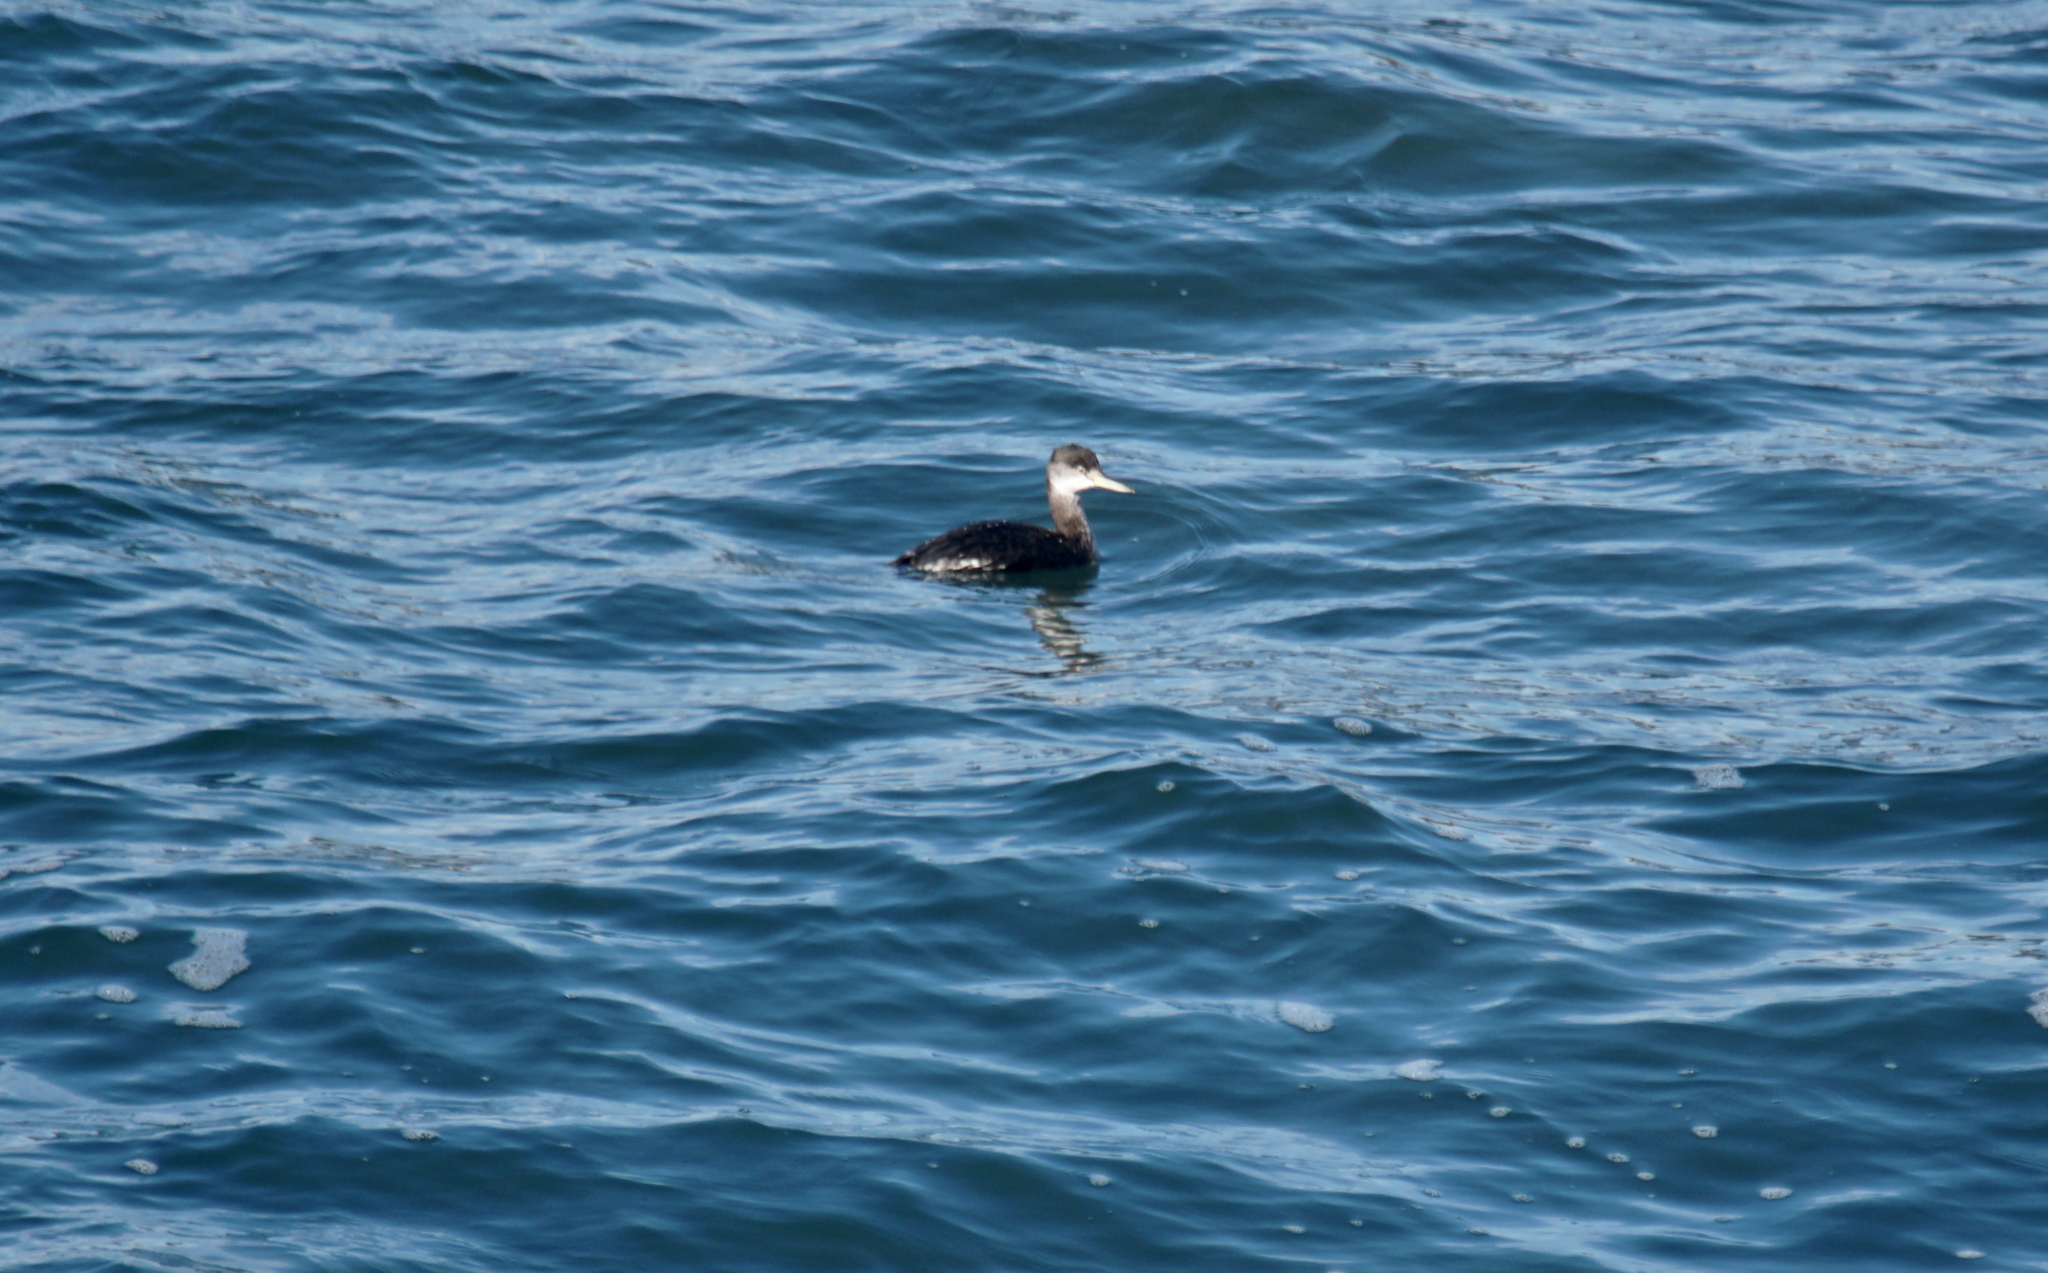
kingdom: Animalia
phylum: Chordata
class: Aves
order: Podicipediformes
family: Podicipedidae
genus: Podiceps
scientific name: Podiceps grisegena
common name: Red-necked grebe
